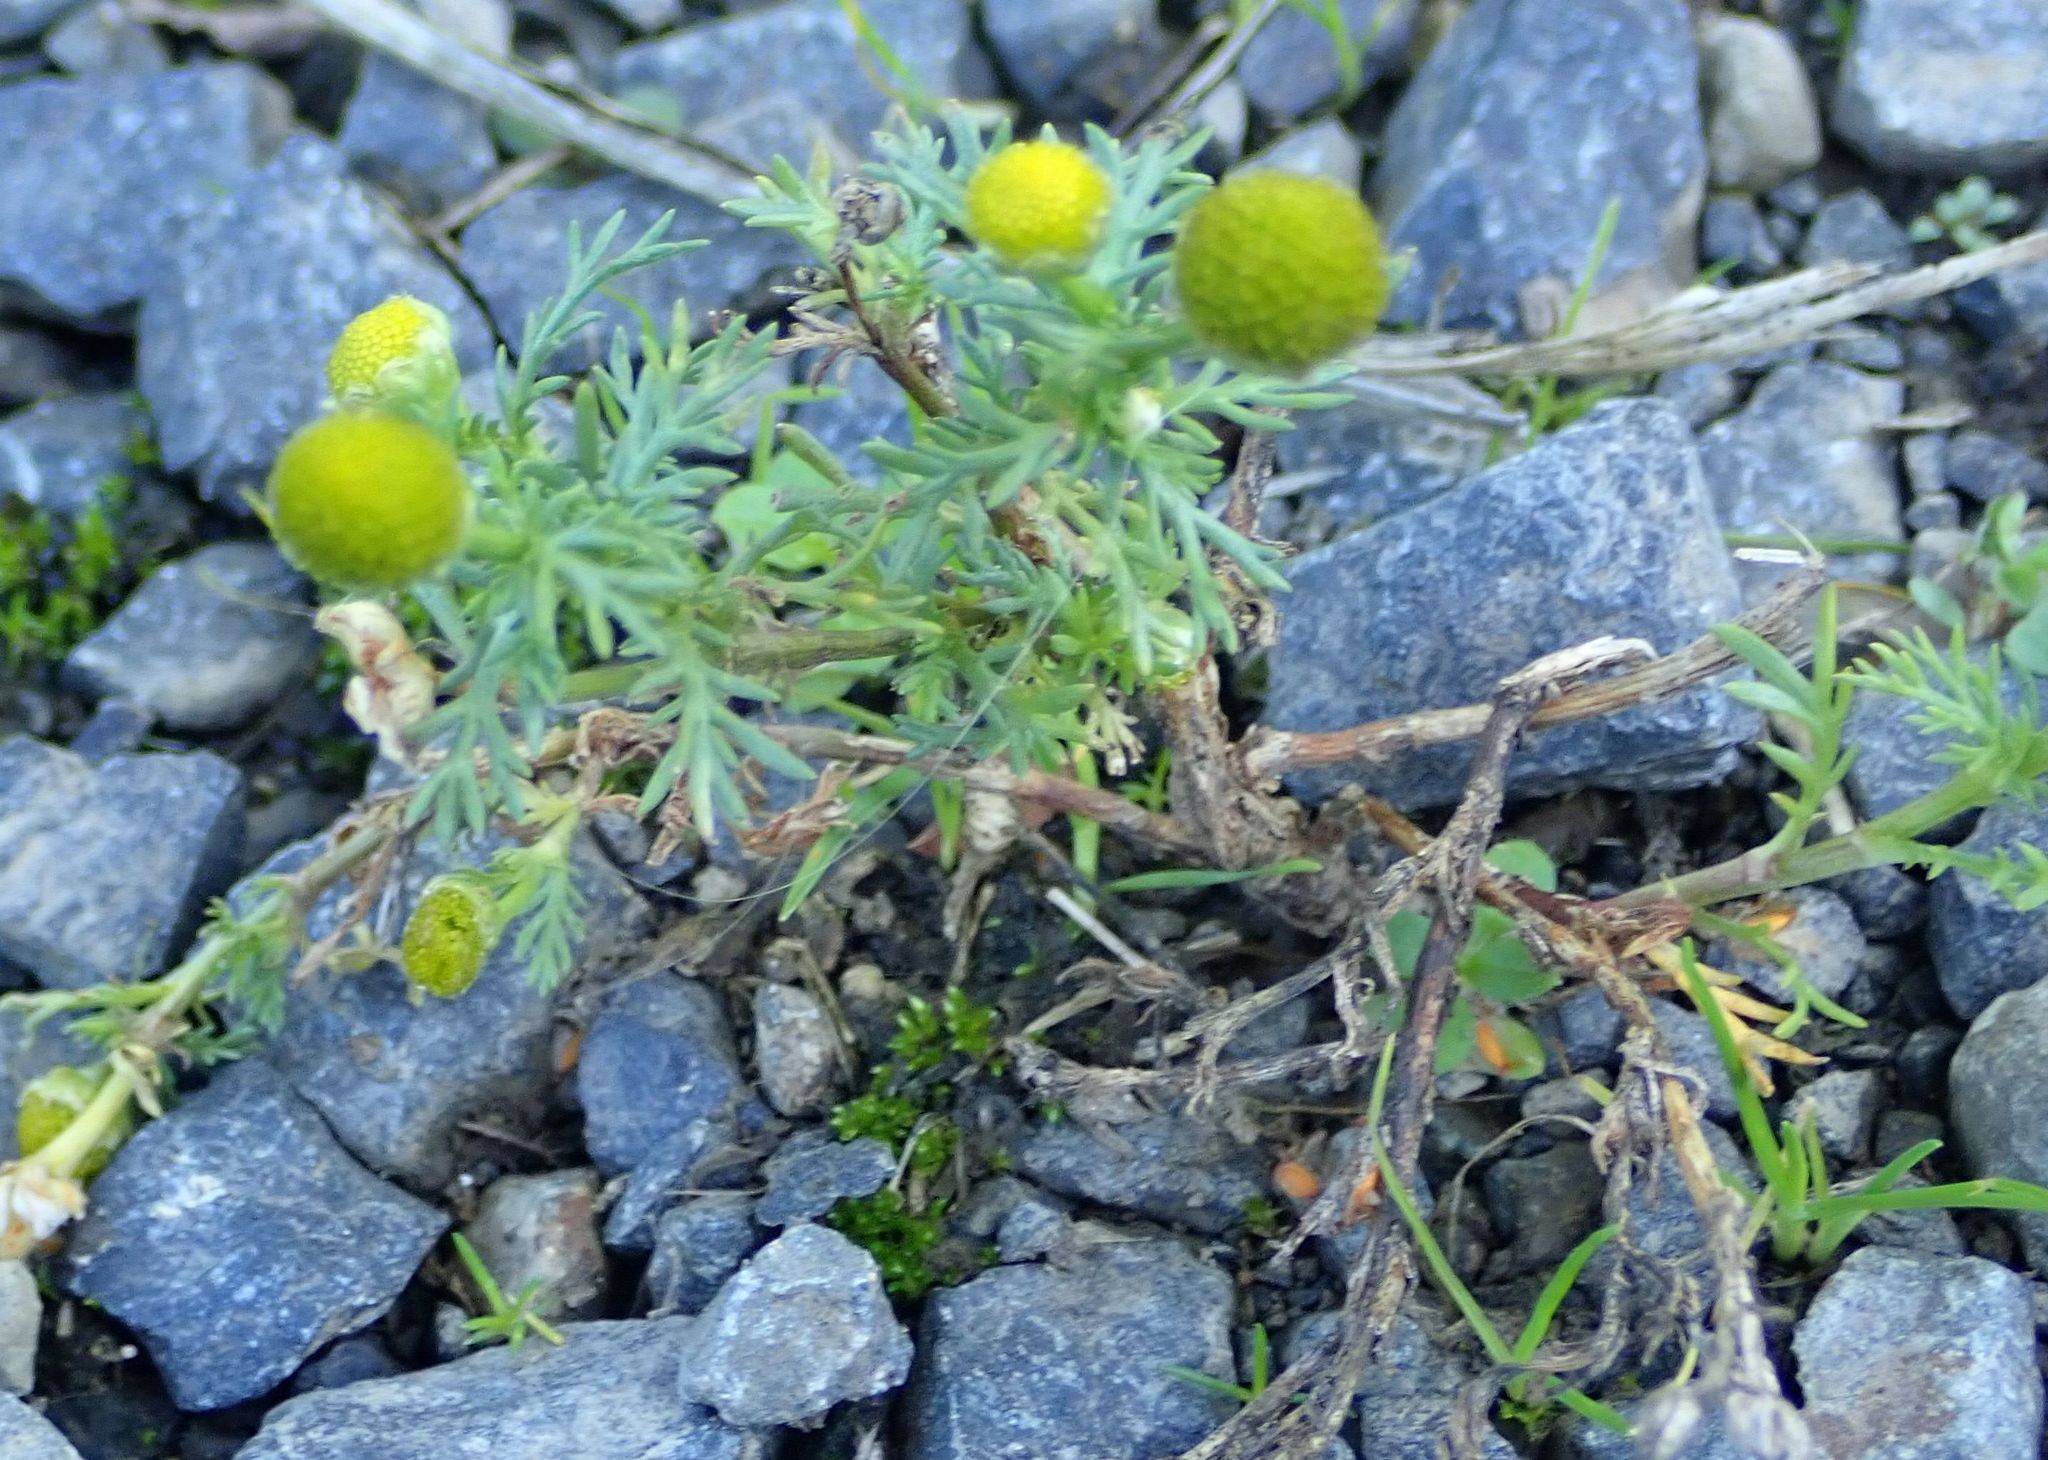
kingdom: Plantae
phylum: Tracheophyta
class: Magnoliopsida
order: Asterales
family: Asteraceae
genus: Matricaria
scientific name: Matricaria discoidea
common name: Disc mayweed
